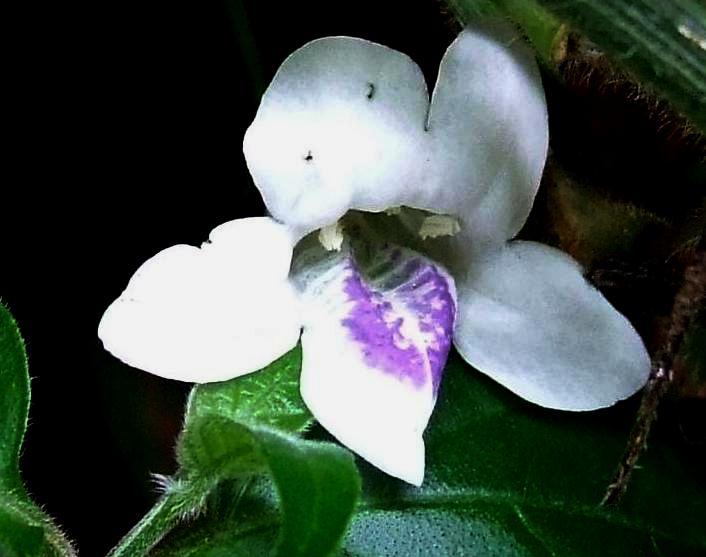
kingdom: Plantae
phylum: Tracheophyta
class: Magnoliopsida
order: Lamiales
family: Acanthaceae
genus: Asystasia
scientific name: Asystasia intrusa
